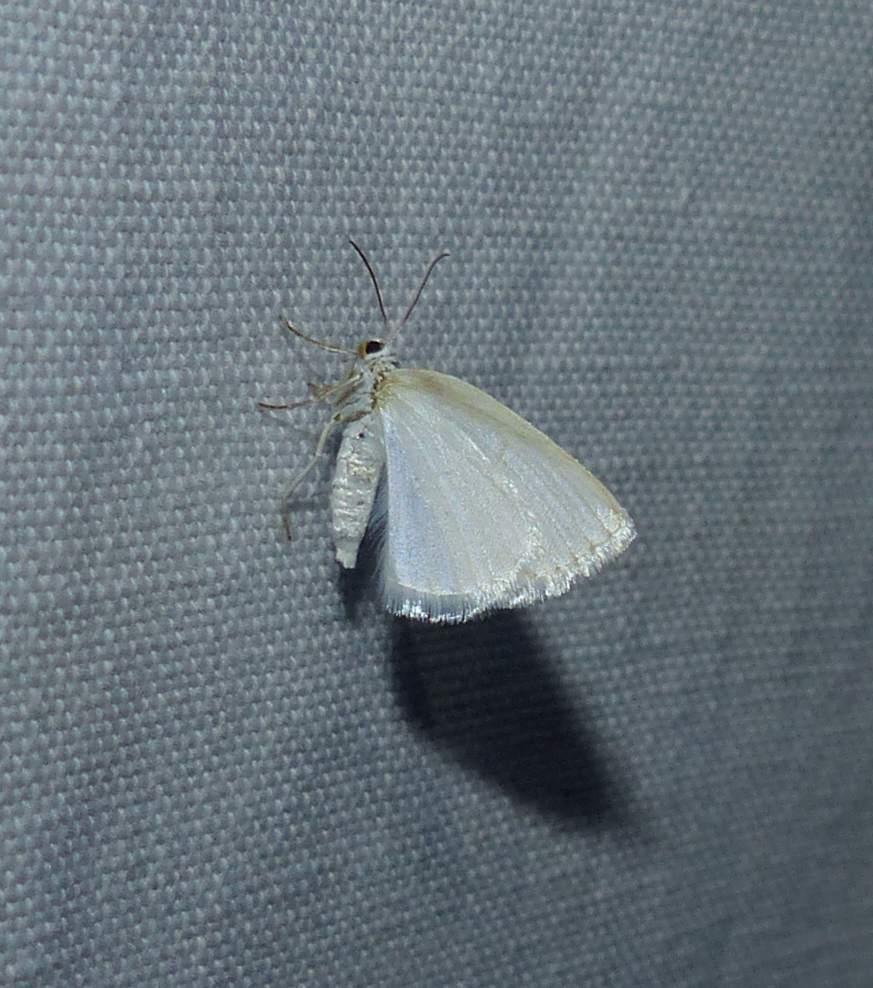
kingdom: Animalia
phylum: Arthropoda
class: Insecta
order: Lepidoptera
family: Geometridae
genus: Lomographa
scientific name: Lomographa vestaliata
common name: White spring moth
